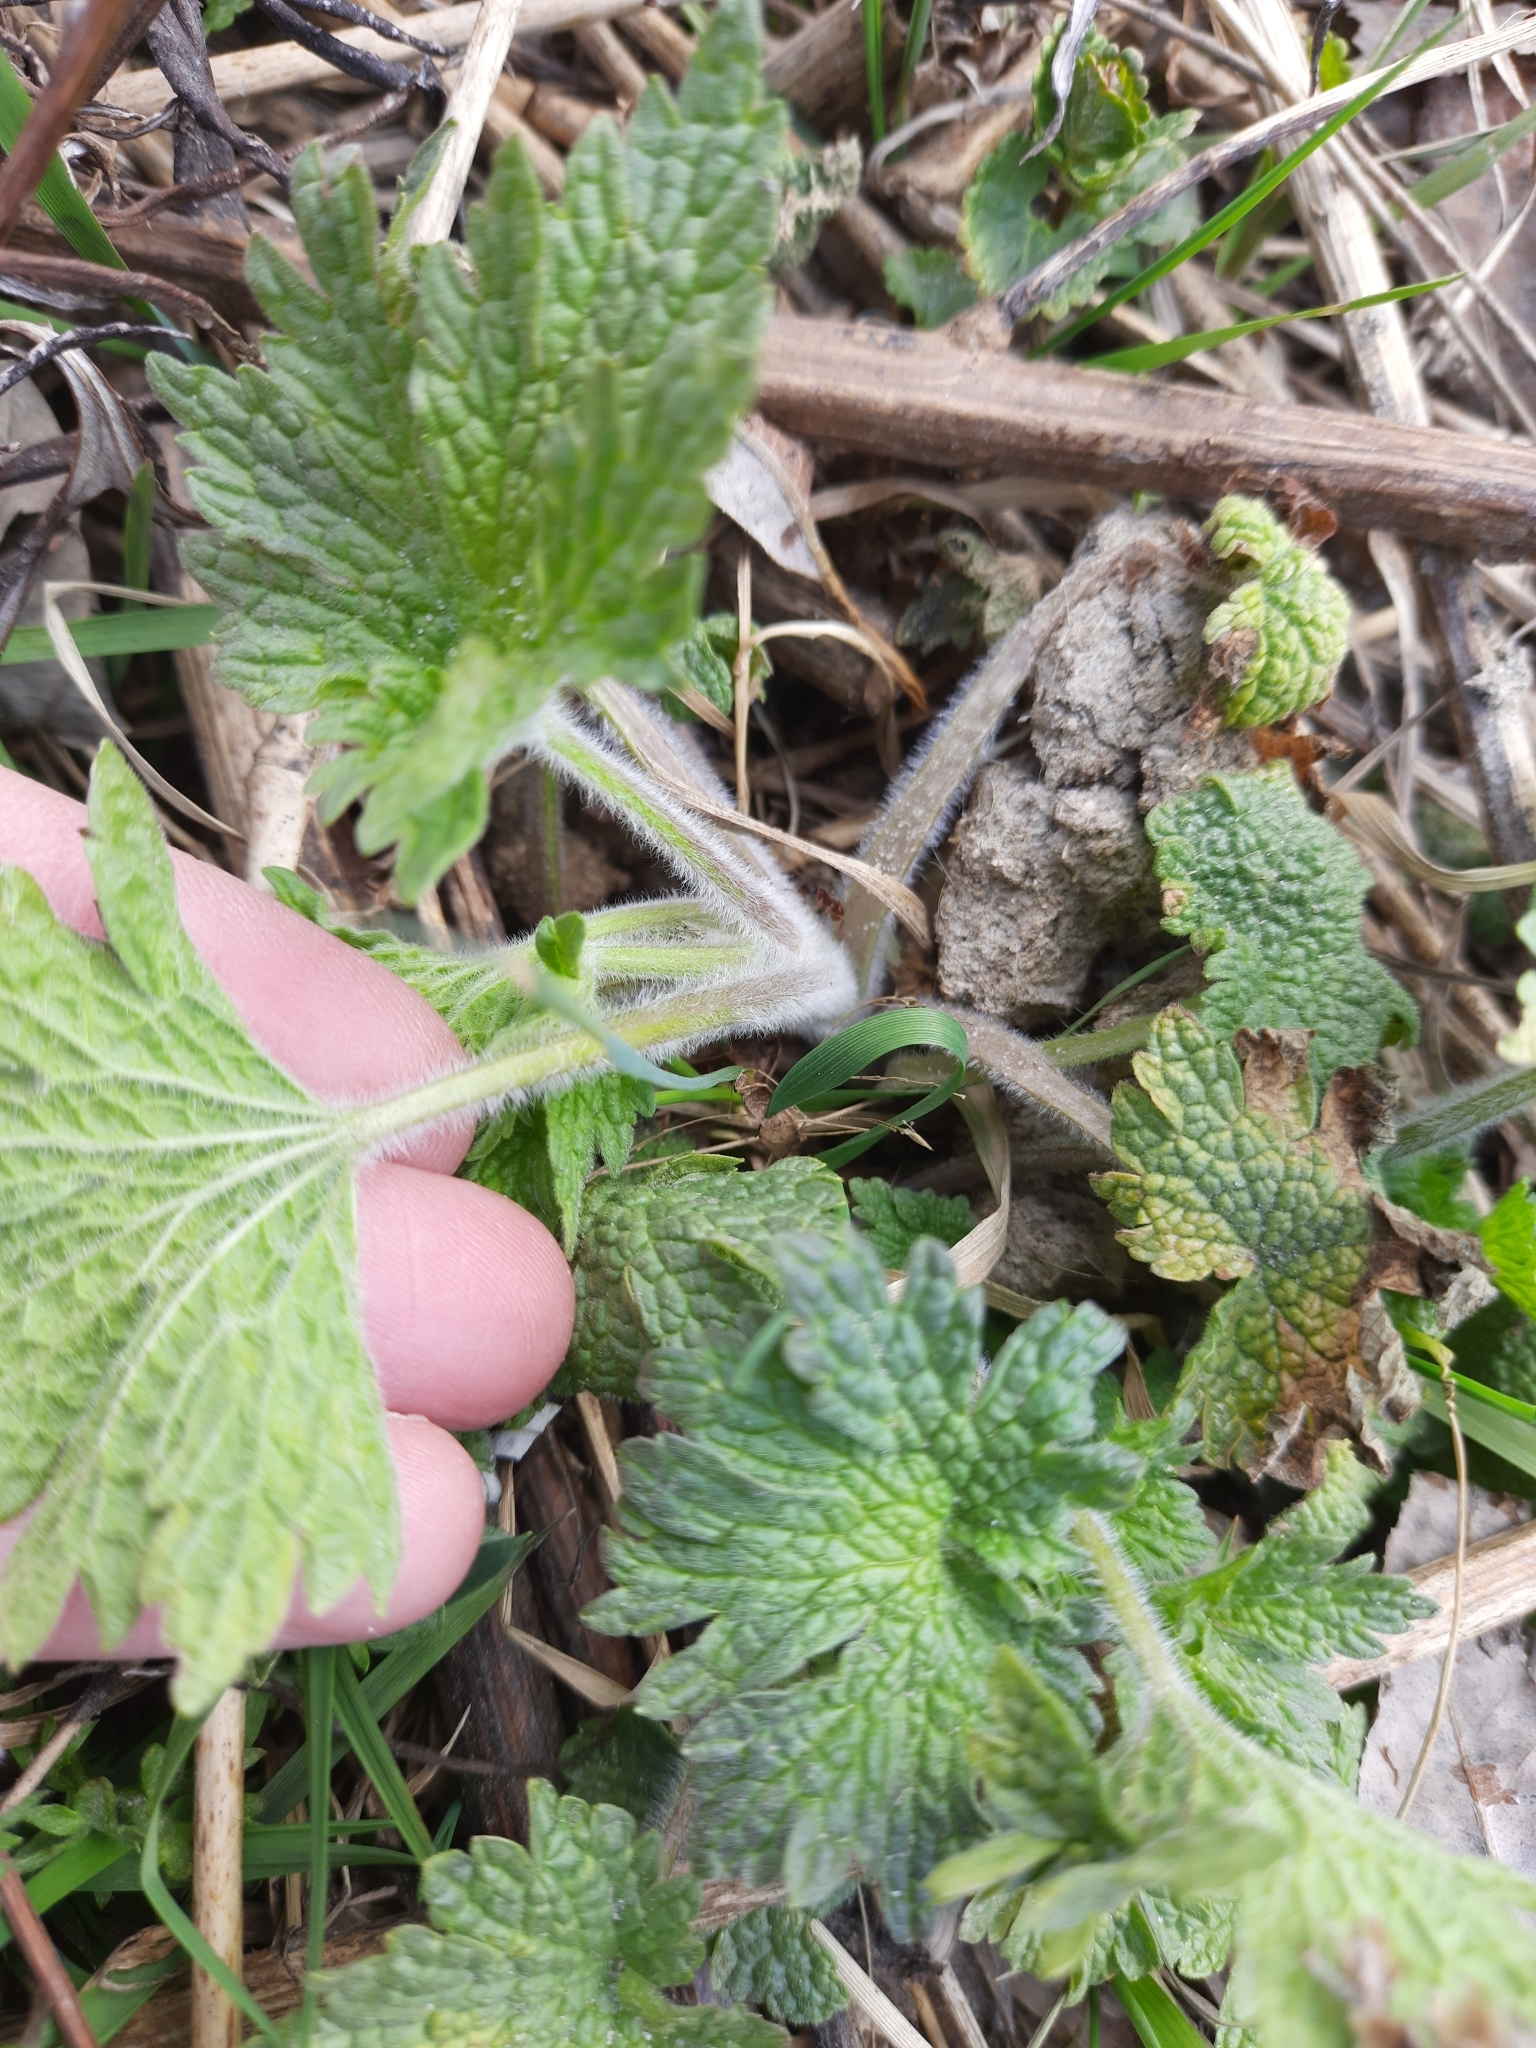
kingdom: Plantae
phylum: Tracheophyta
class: Magnoliopsida
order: Lamiales
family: Lamiaceae
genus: Leonurus
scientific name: Leonurus quinquelobatus
